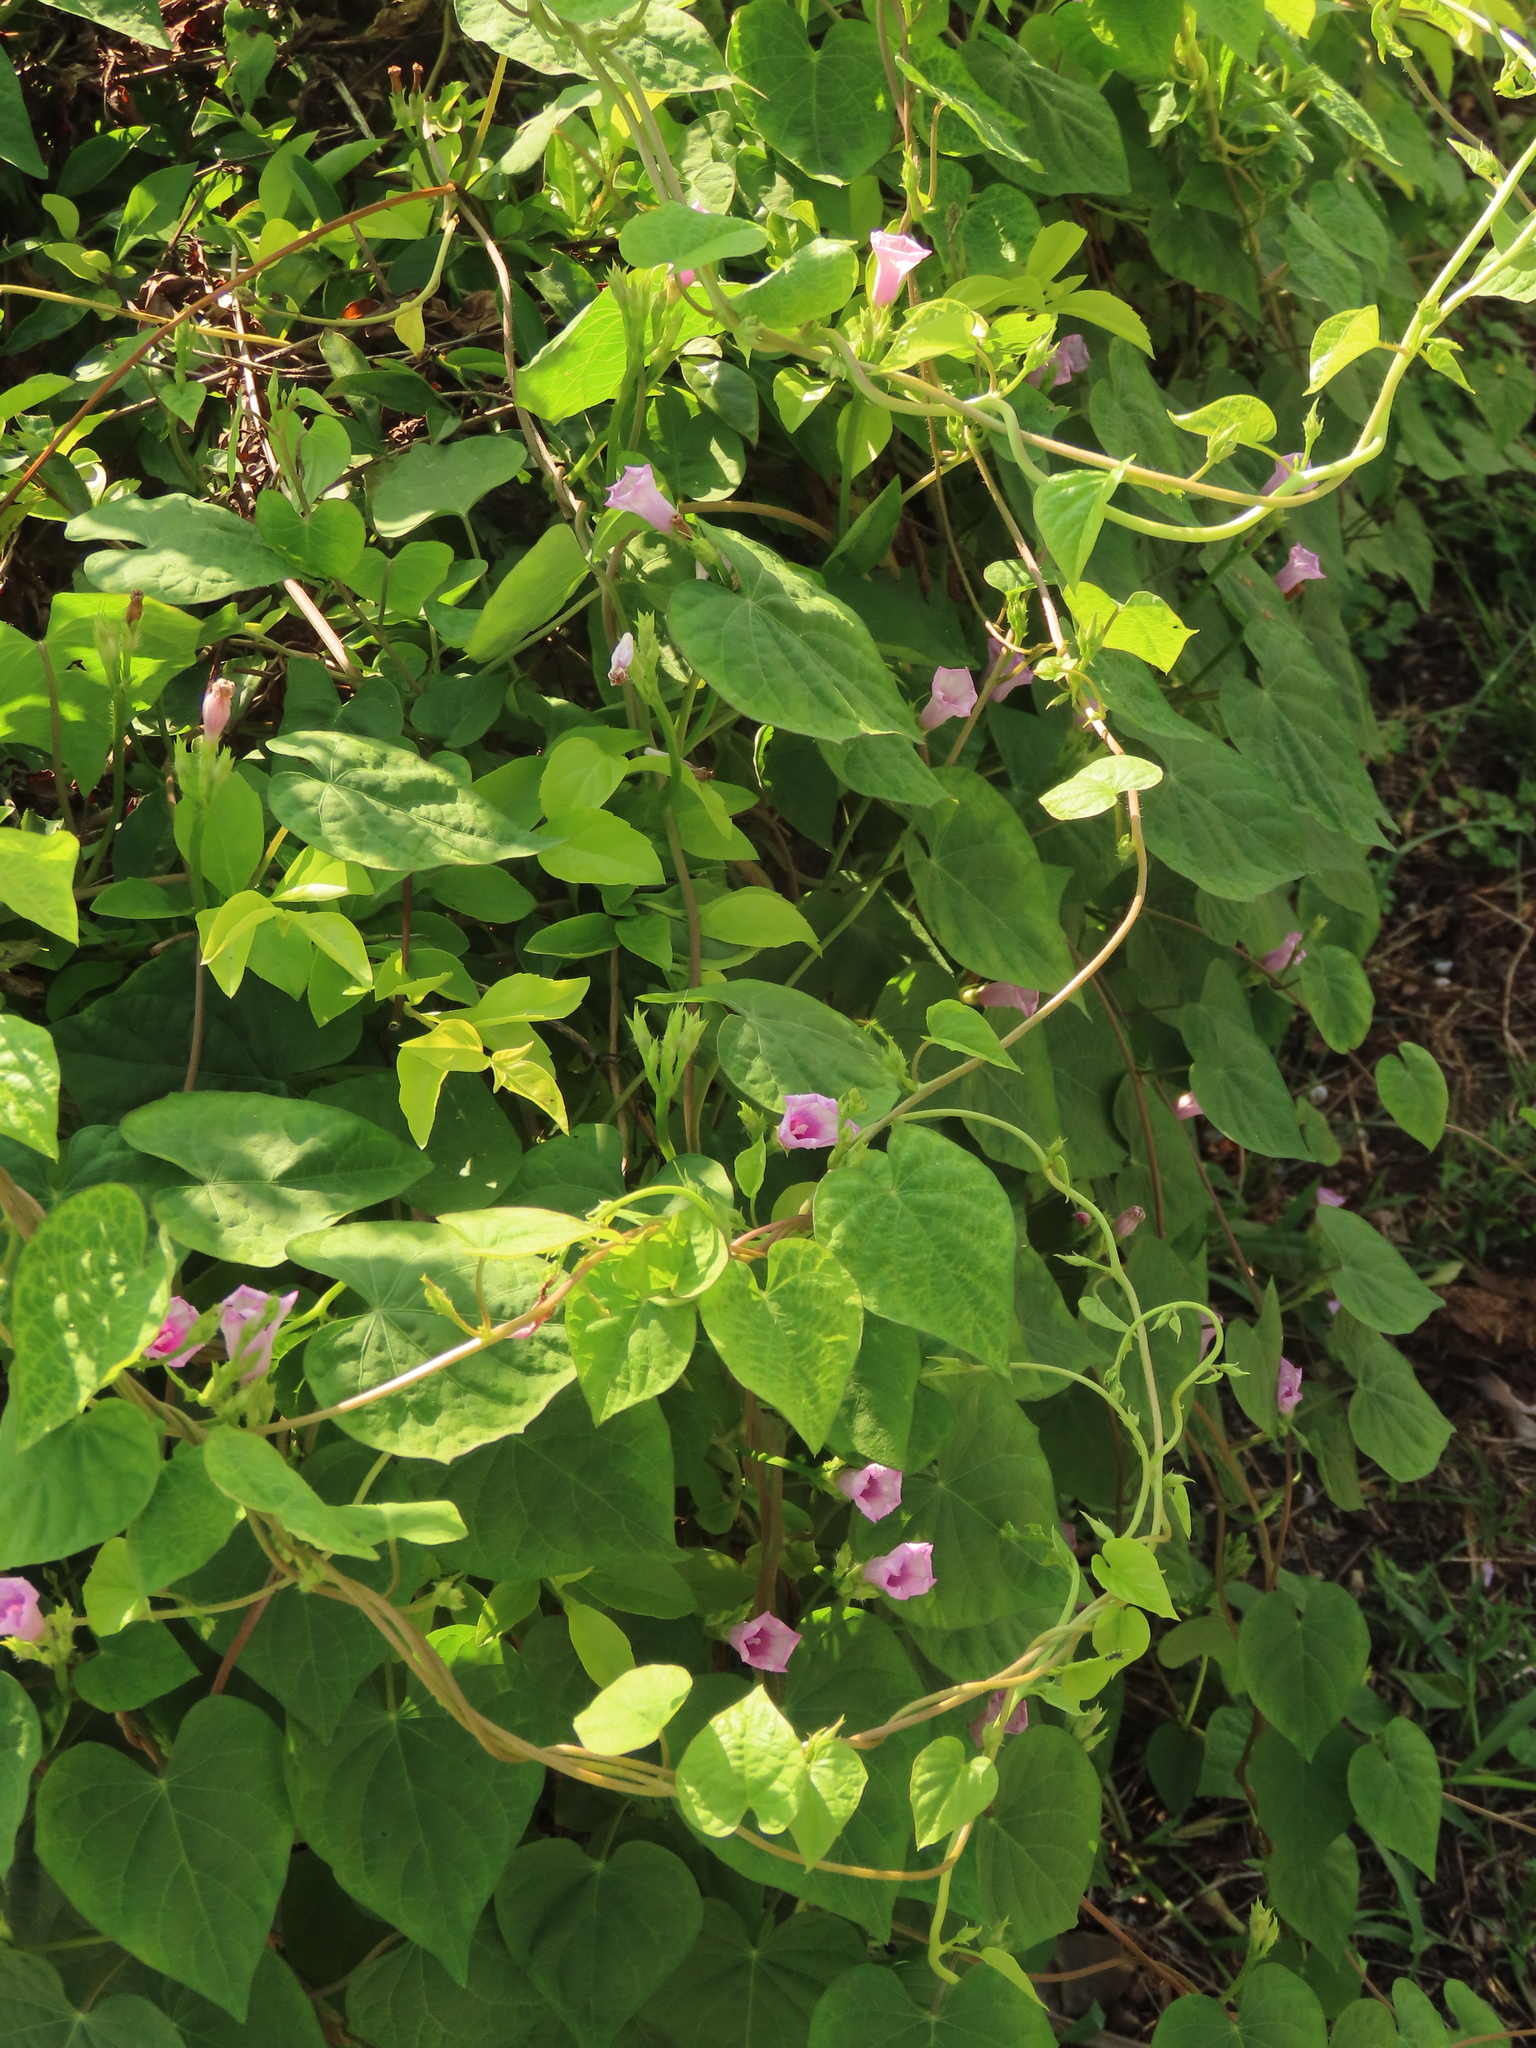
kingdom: Plantae
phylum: Tracheophyta
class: Magnoliopsida
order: Solanales
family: Convolvulaceae
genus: Ipomoea
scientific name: Ipomoea triloba
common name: Little-bell
